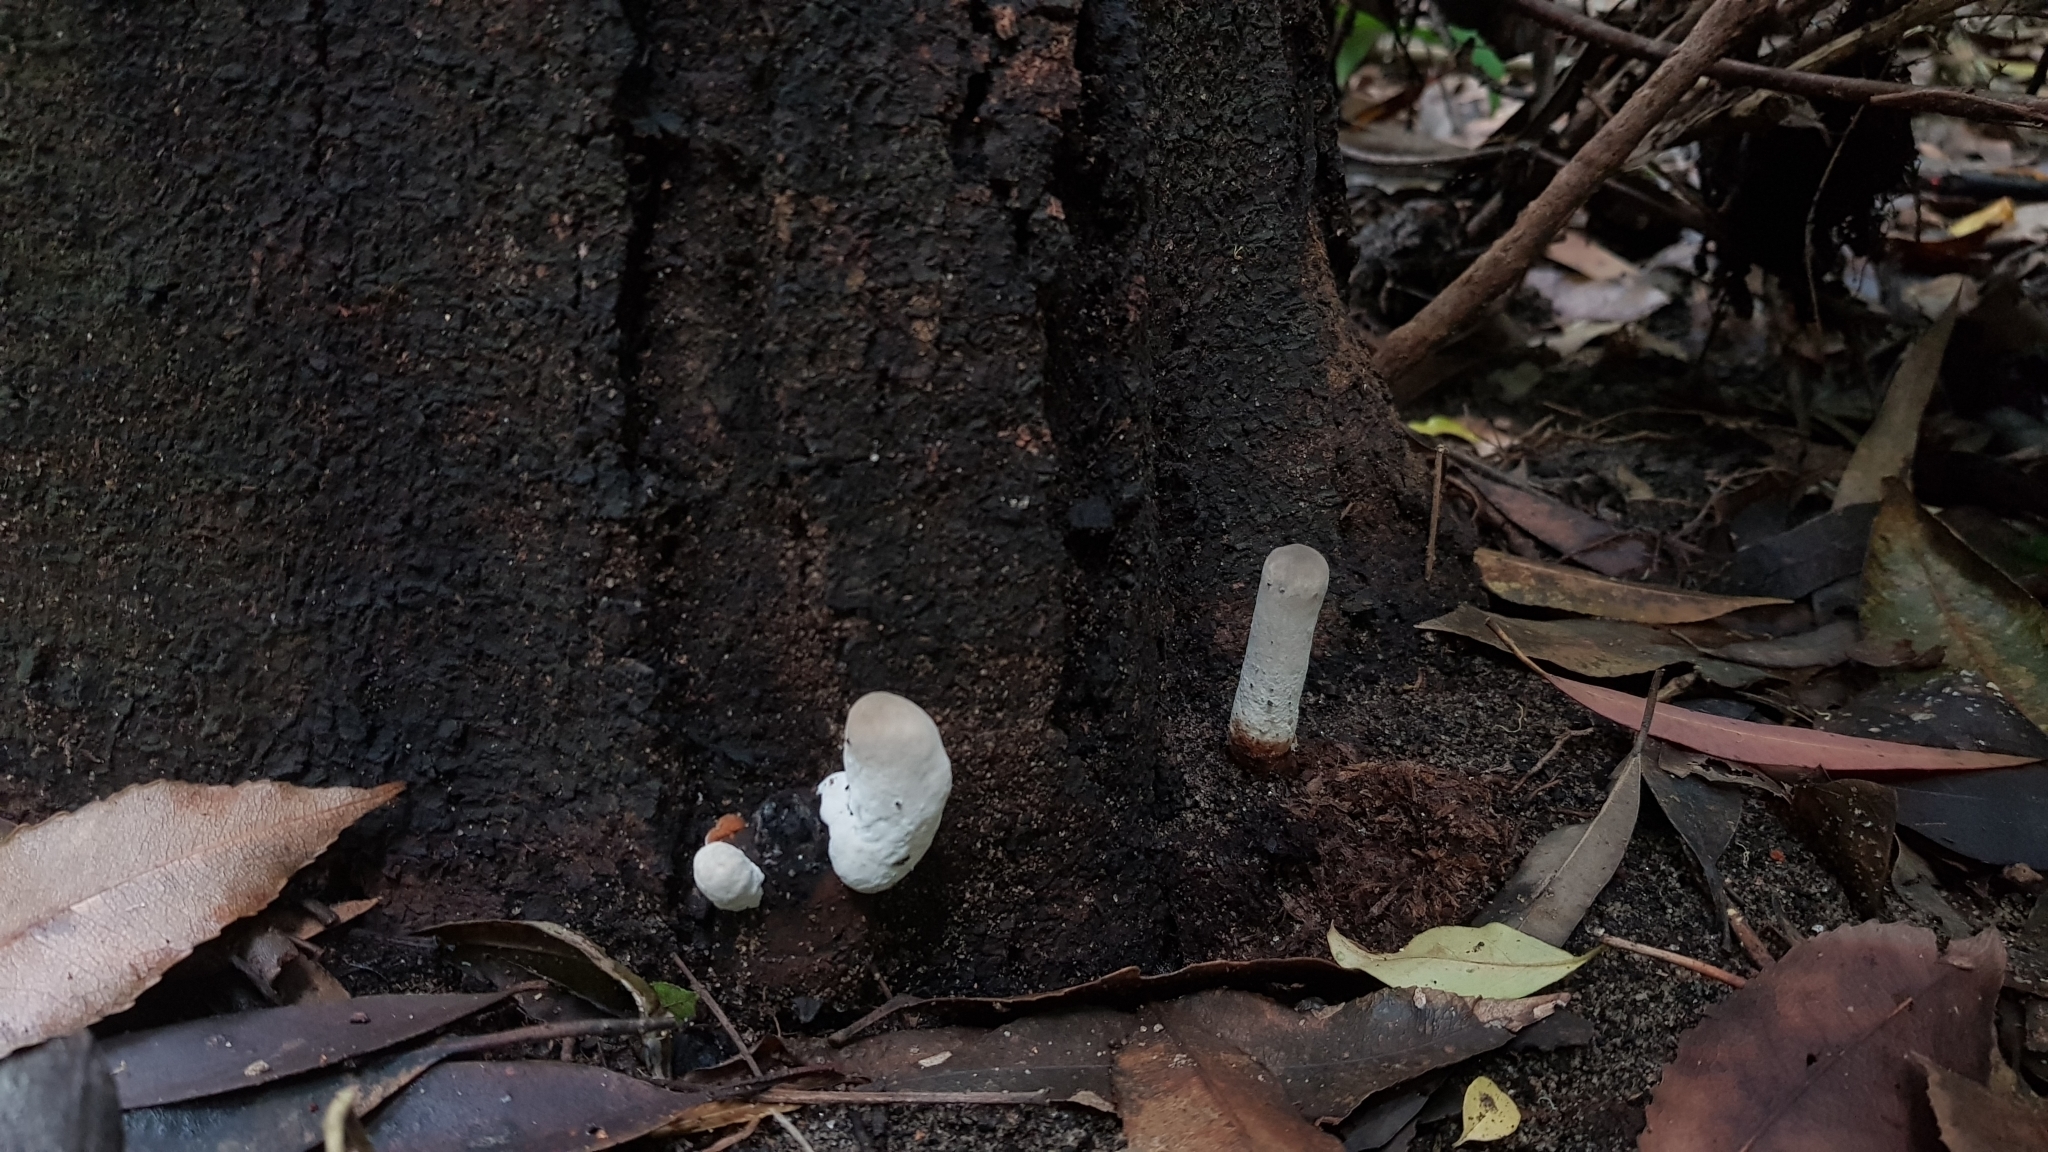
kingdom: Fungi
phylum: Basidiomycota
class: Agaricomycetes
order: Polyporales
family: Ganodermataceae
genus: Sanguinoderma
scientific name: Sanguinoderma rude
